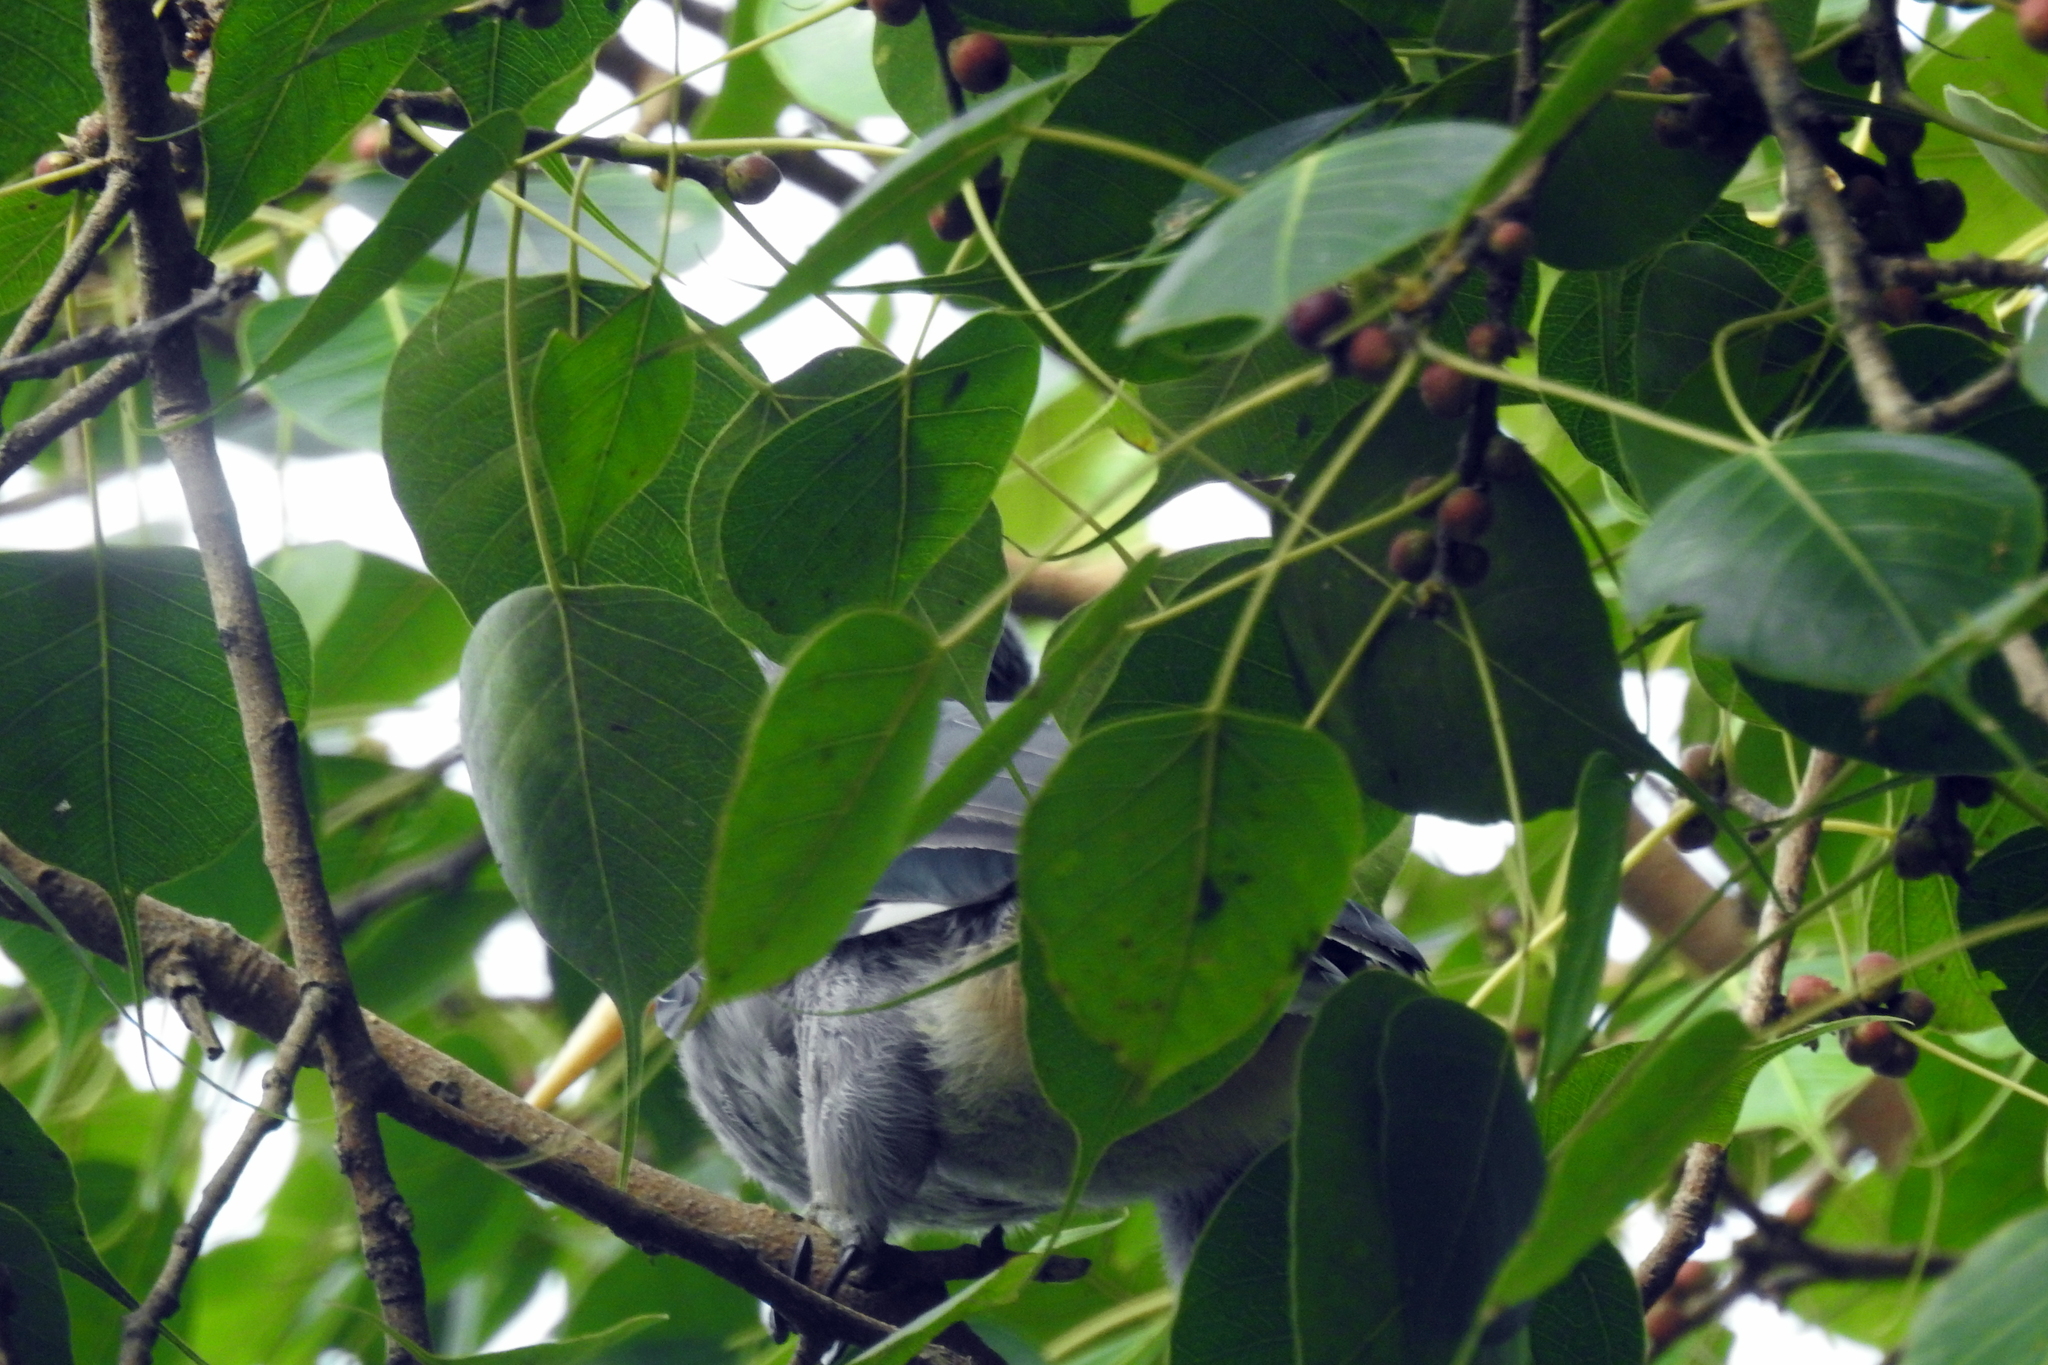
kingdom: Plantae
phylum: Tracheophyta
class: Magnoliopsida
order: Rosales
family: Moraceae
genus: Ficus
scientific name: Ficus religiosa
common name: Bodhi tree
